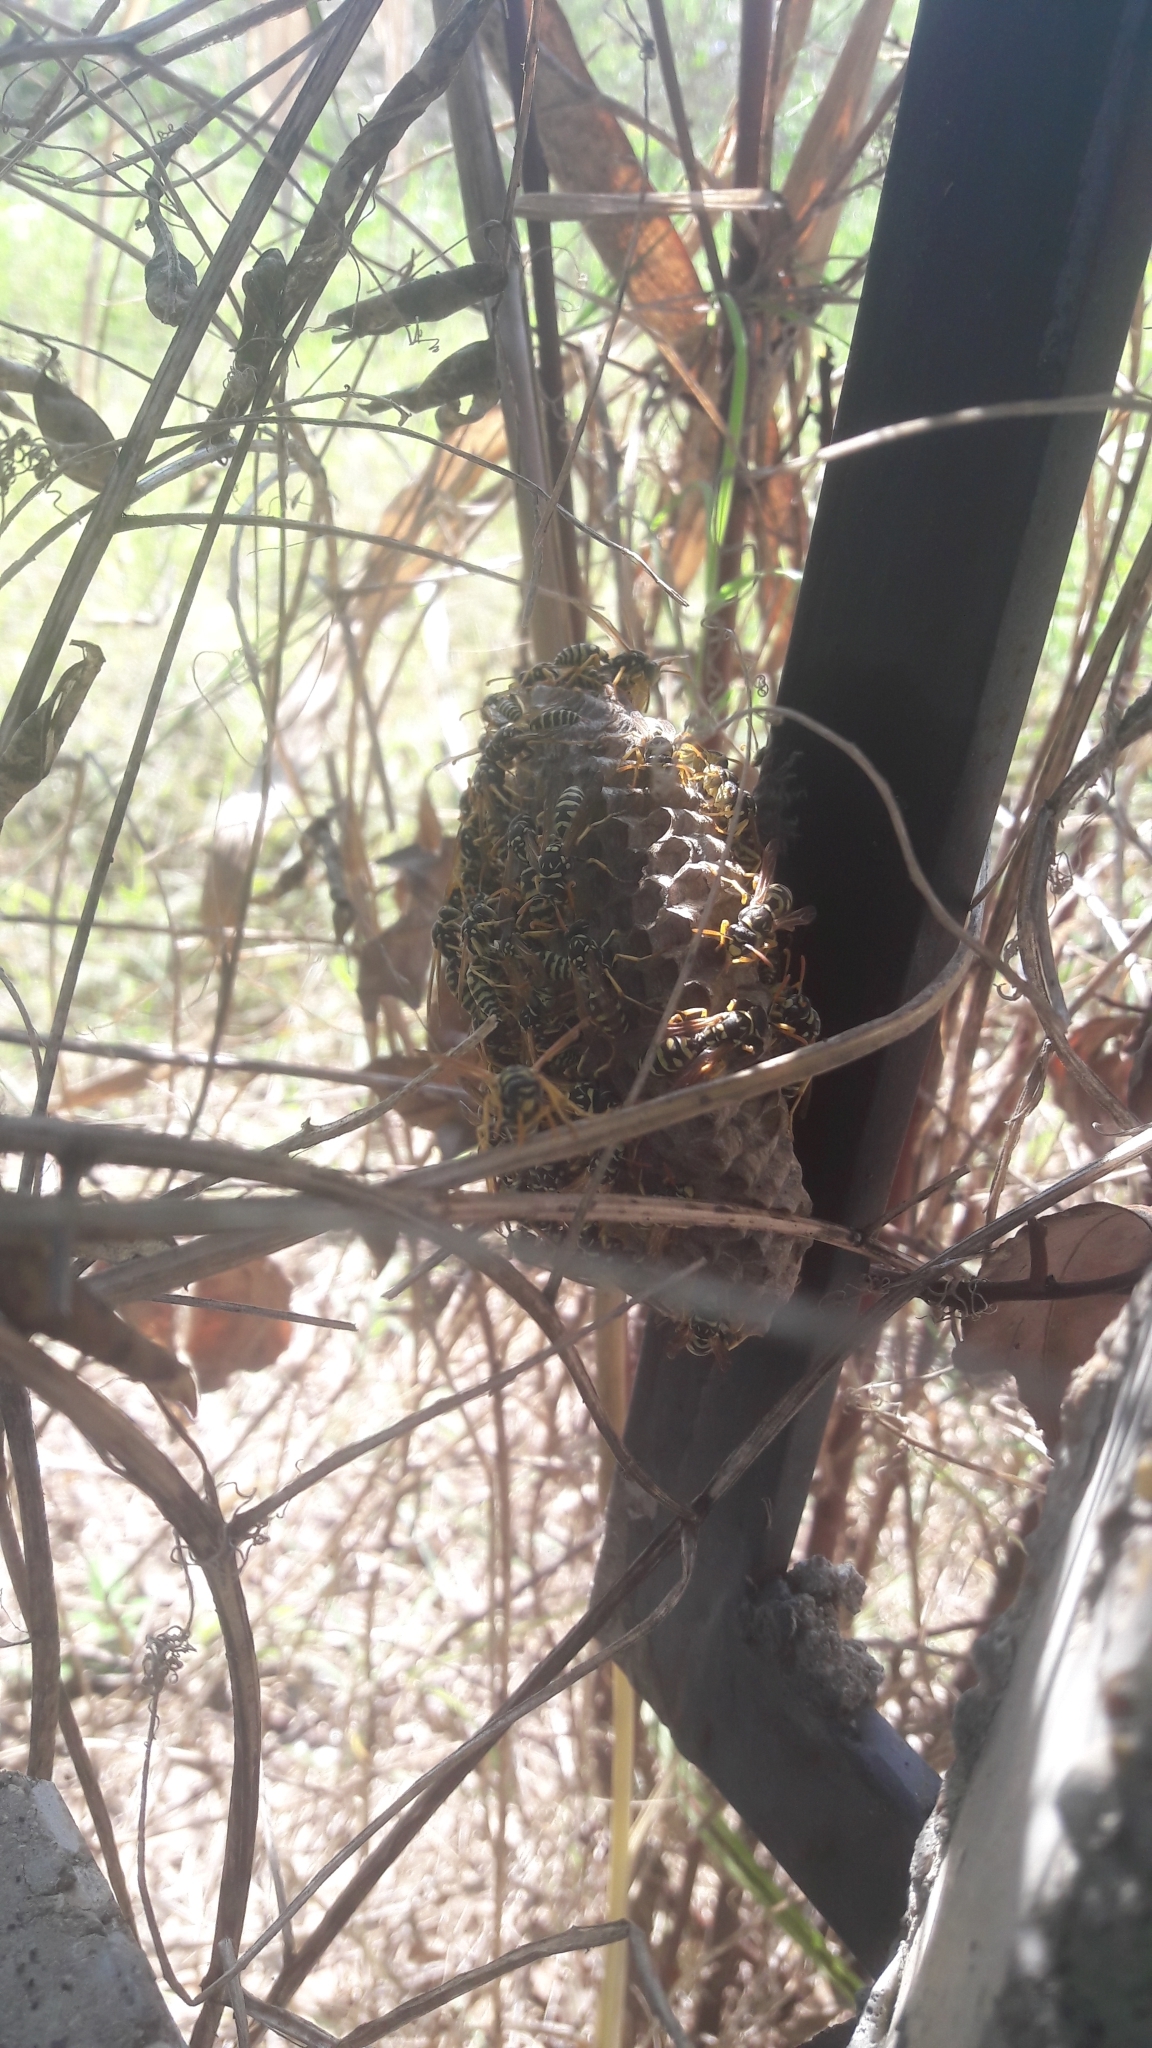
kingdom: Animalia
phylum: Arthropoda
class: Insecta
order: Hymenoptera
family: Eumenidae
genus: Polistes
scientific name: Polistes gallicus
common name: Paper wasp
